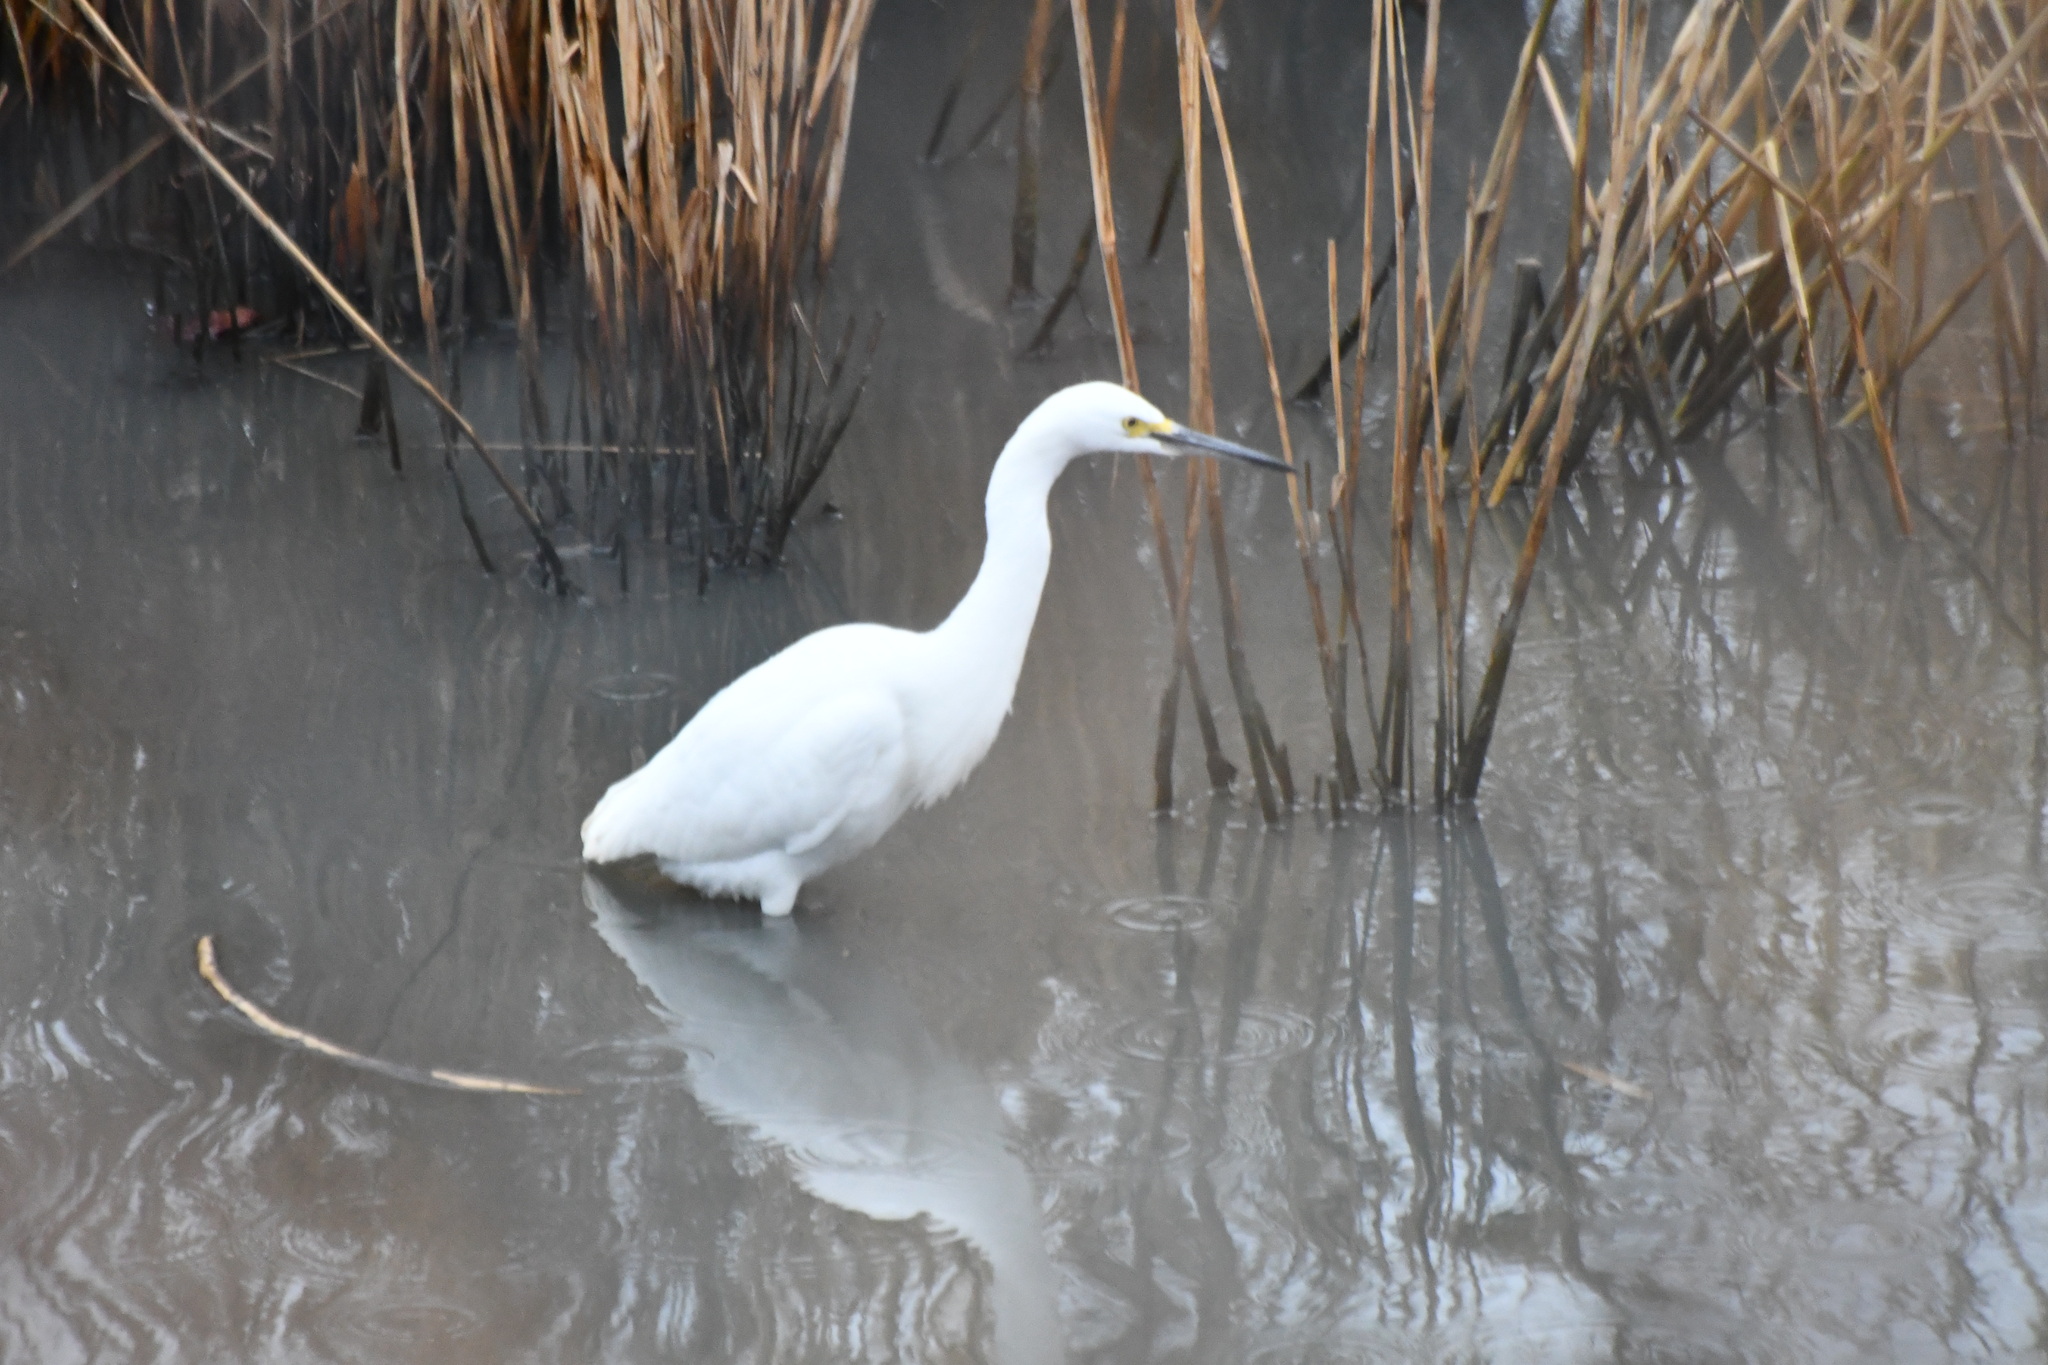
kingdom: Animalia
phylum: Chordata
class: Aves
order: Pelecaniformes
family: Ardeidae
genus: Egretta
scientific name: Egretta thula
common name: Snowy egret
